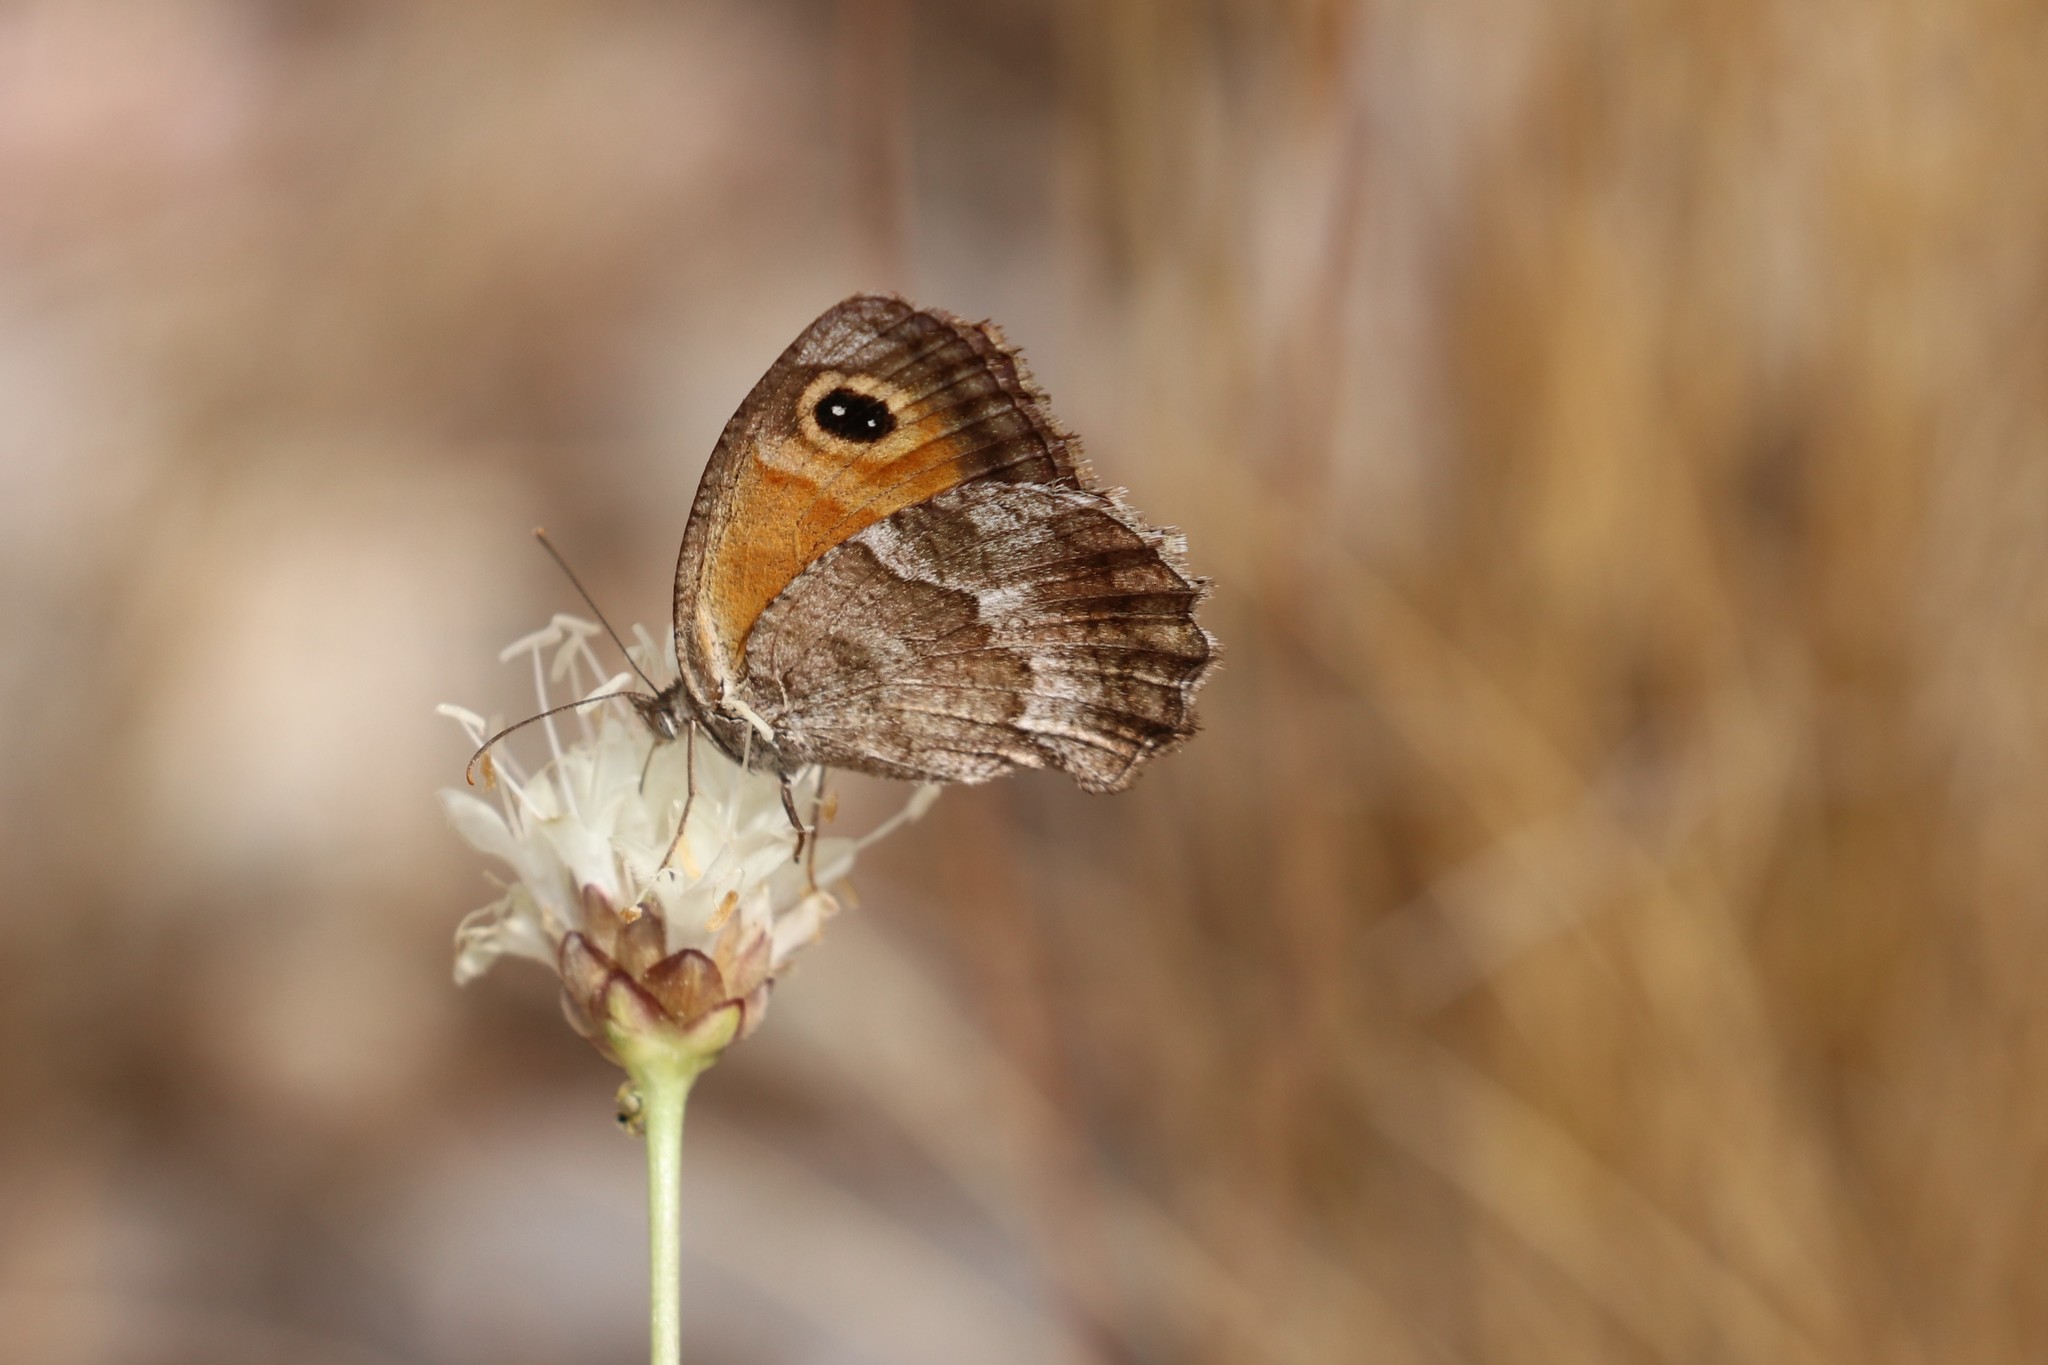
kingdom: Animalia
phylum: Arthropoda
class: Insecta
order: Lepidoptera
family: Nymphalidae
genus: Pyronia
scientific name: Pyronia cecilia
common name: Southern gatekeeper
